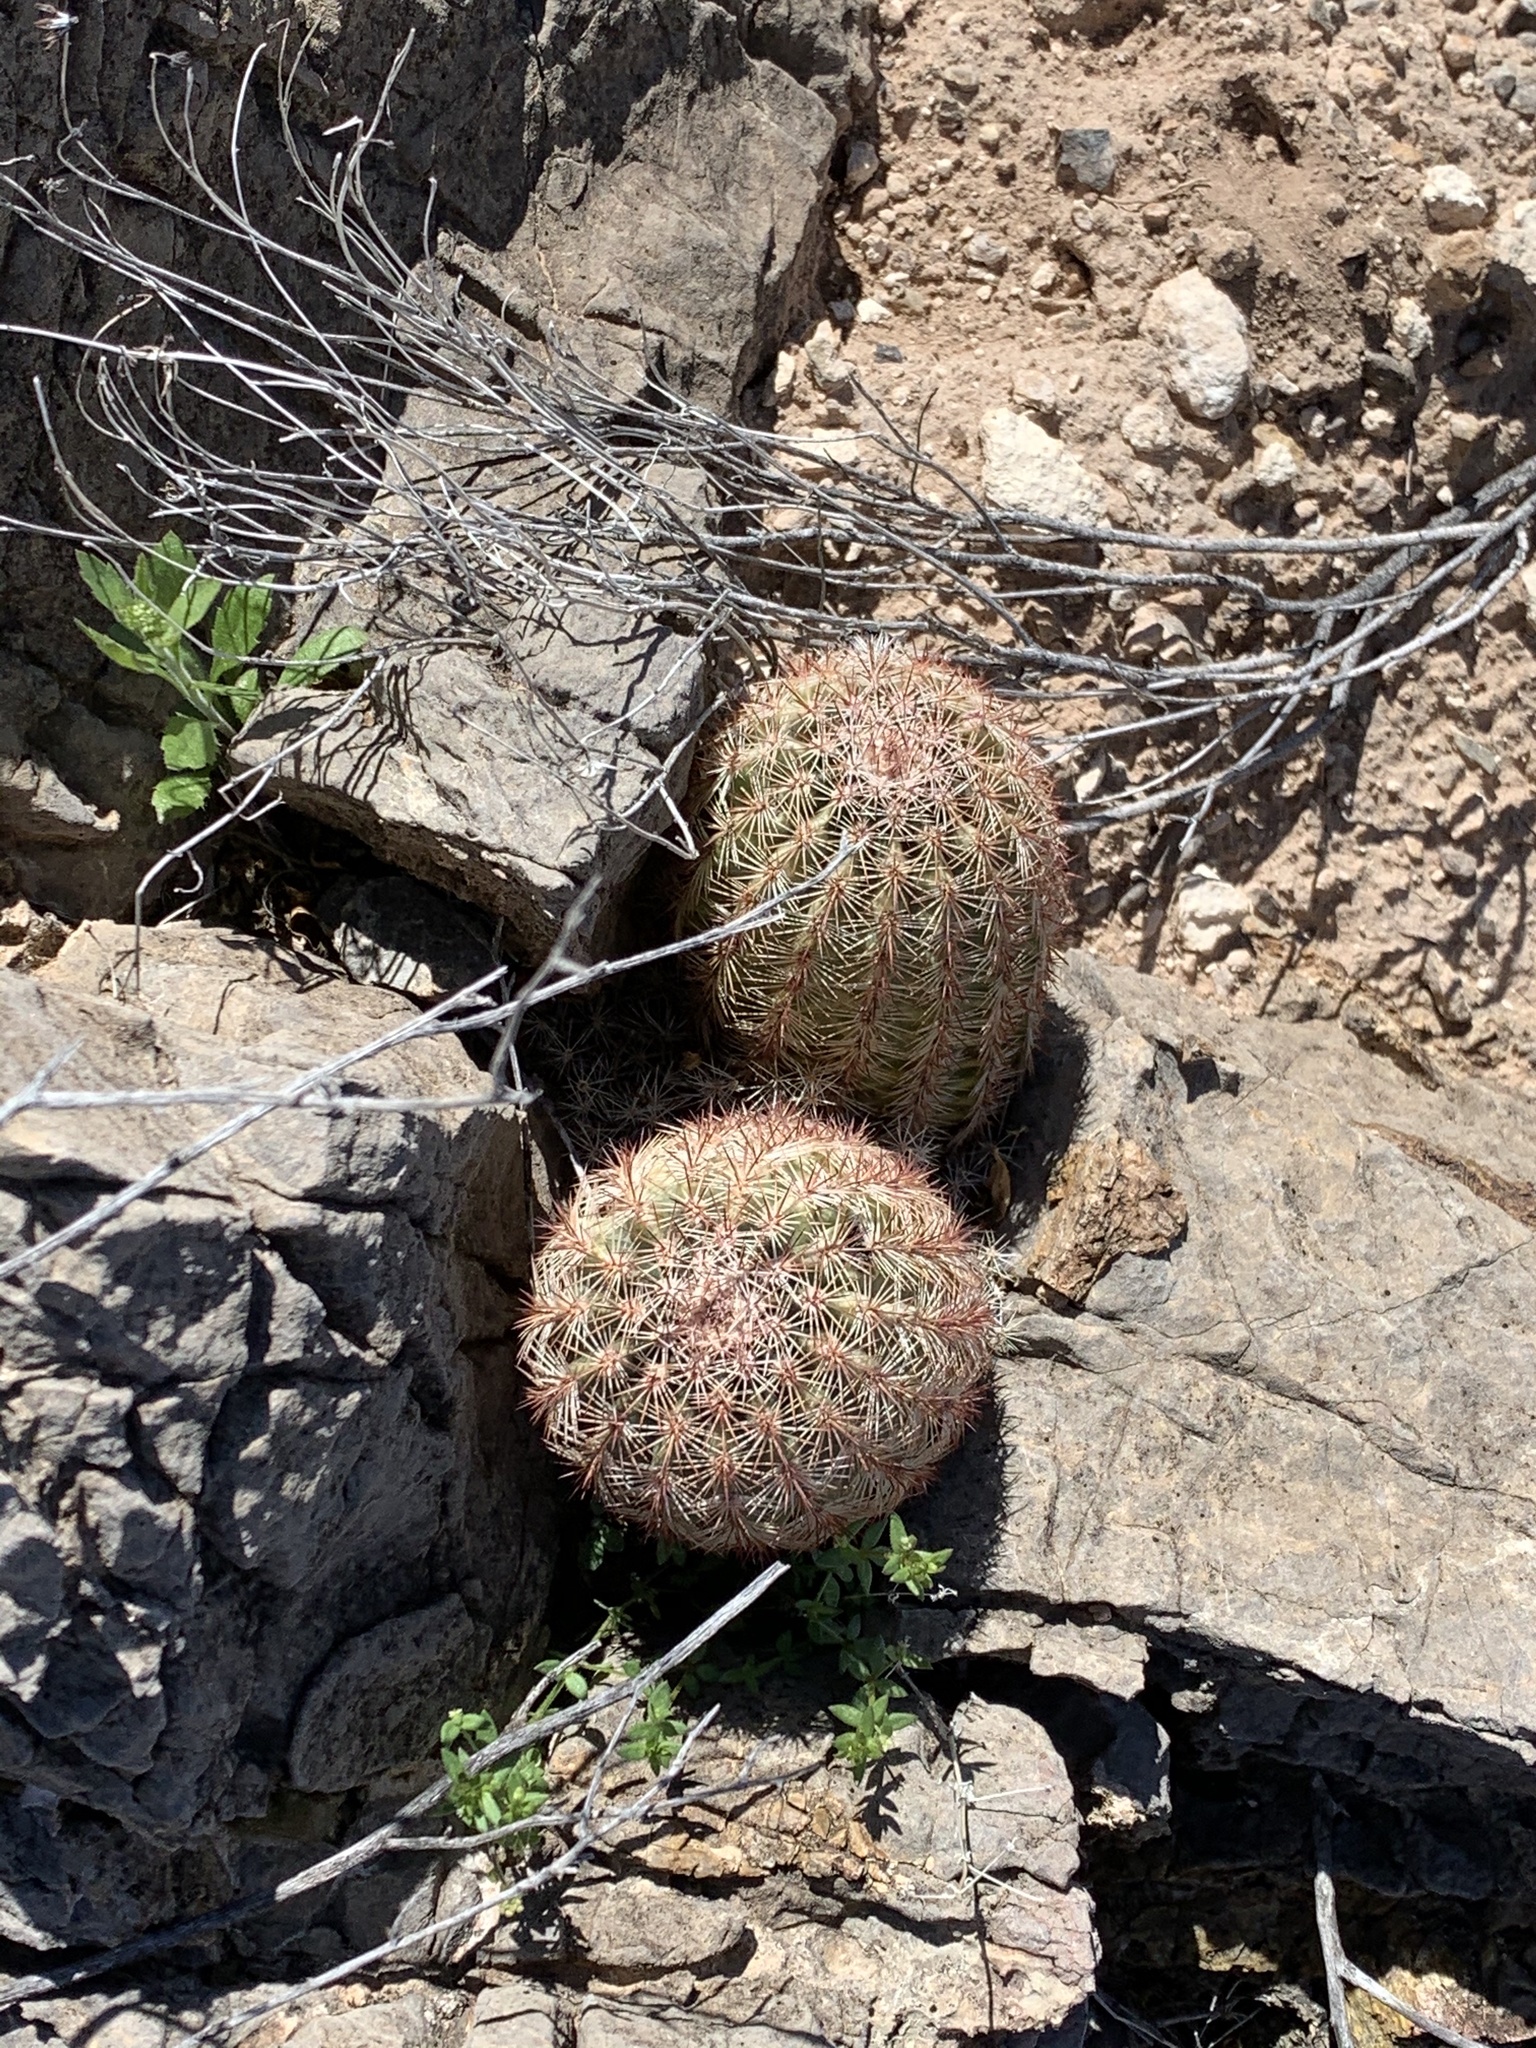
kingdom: Plantae
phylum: Tracheophyta
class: Magnoliopsida
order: Caryophyllales
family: Cactaceae
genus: Echinocereus
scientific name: Echinocereus dasyacanthus
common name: Spiny hedgehog cactus
